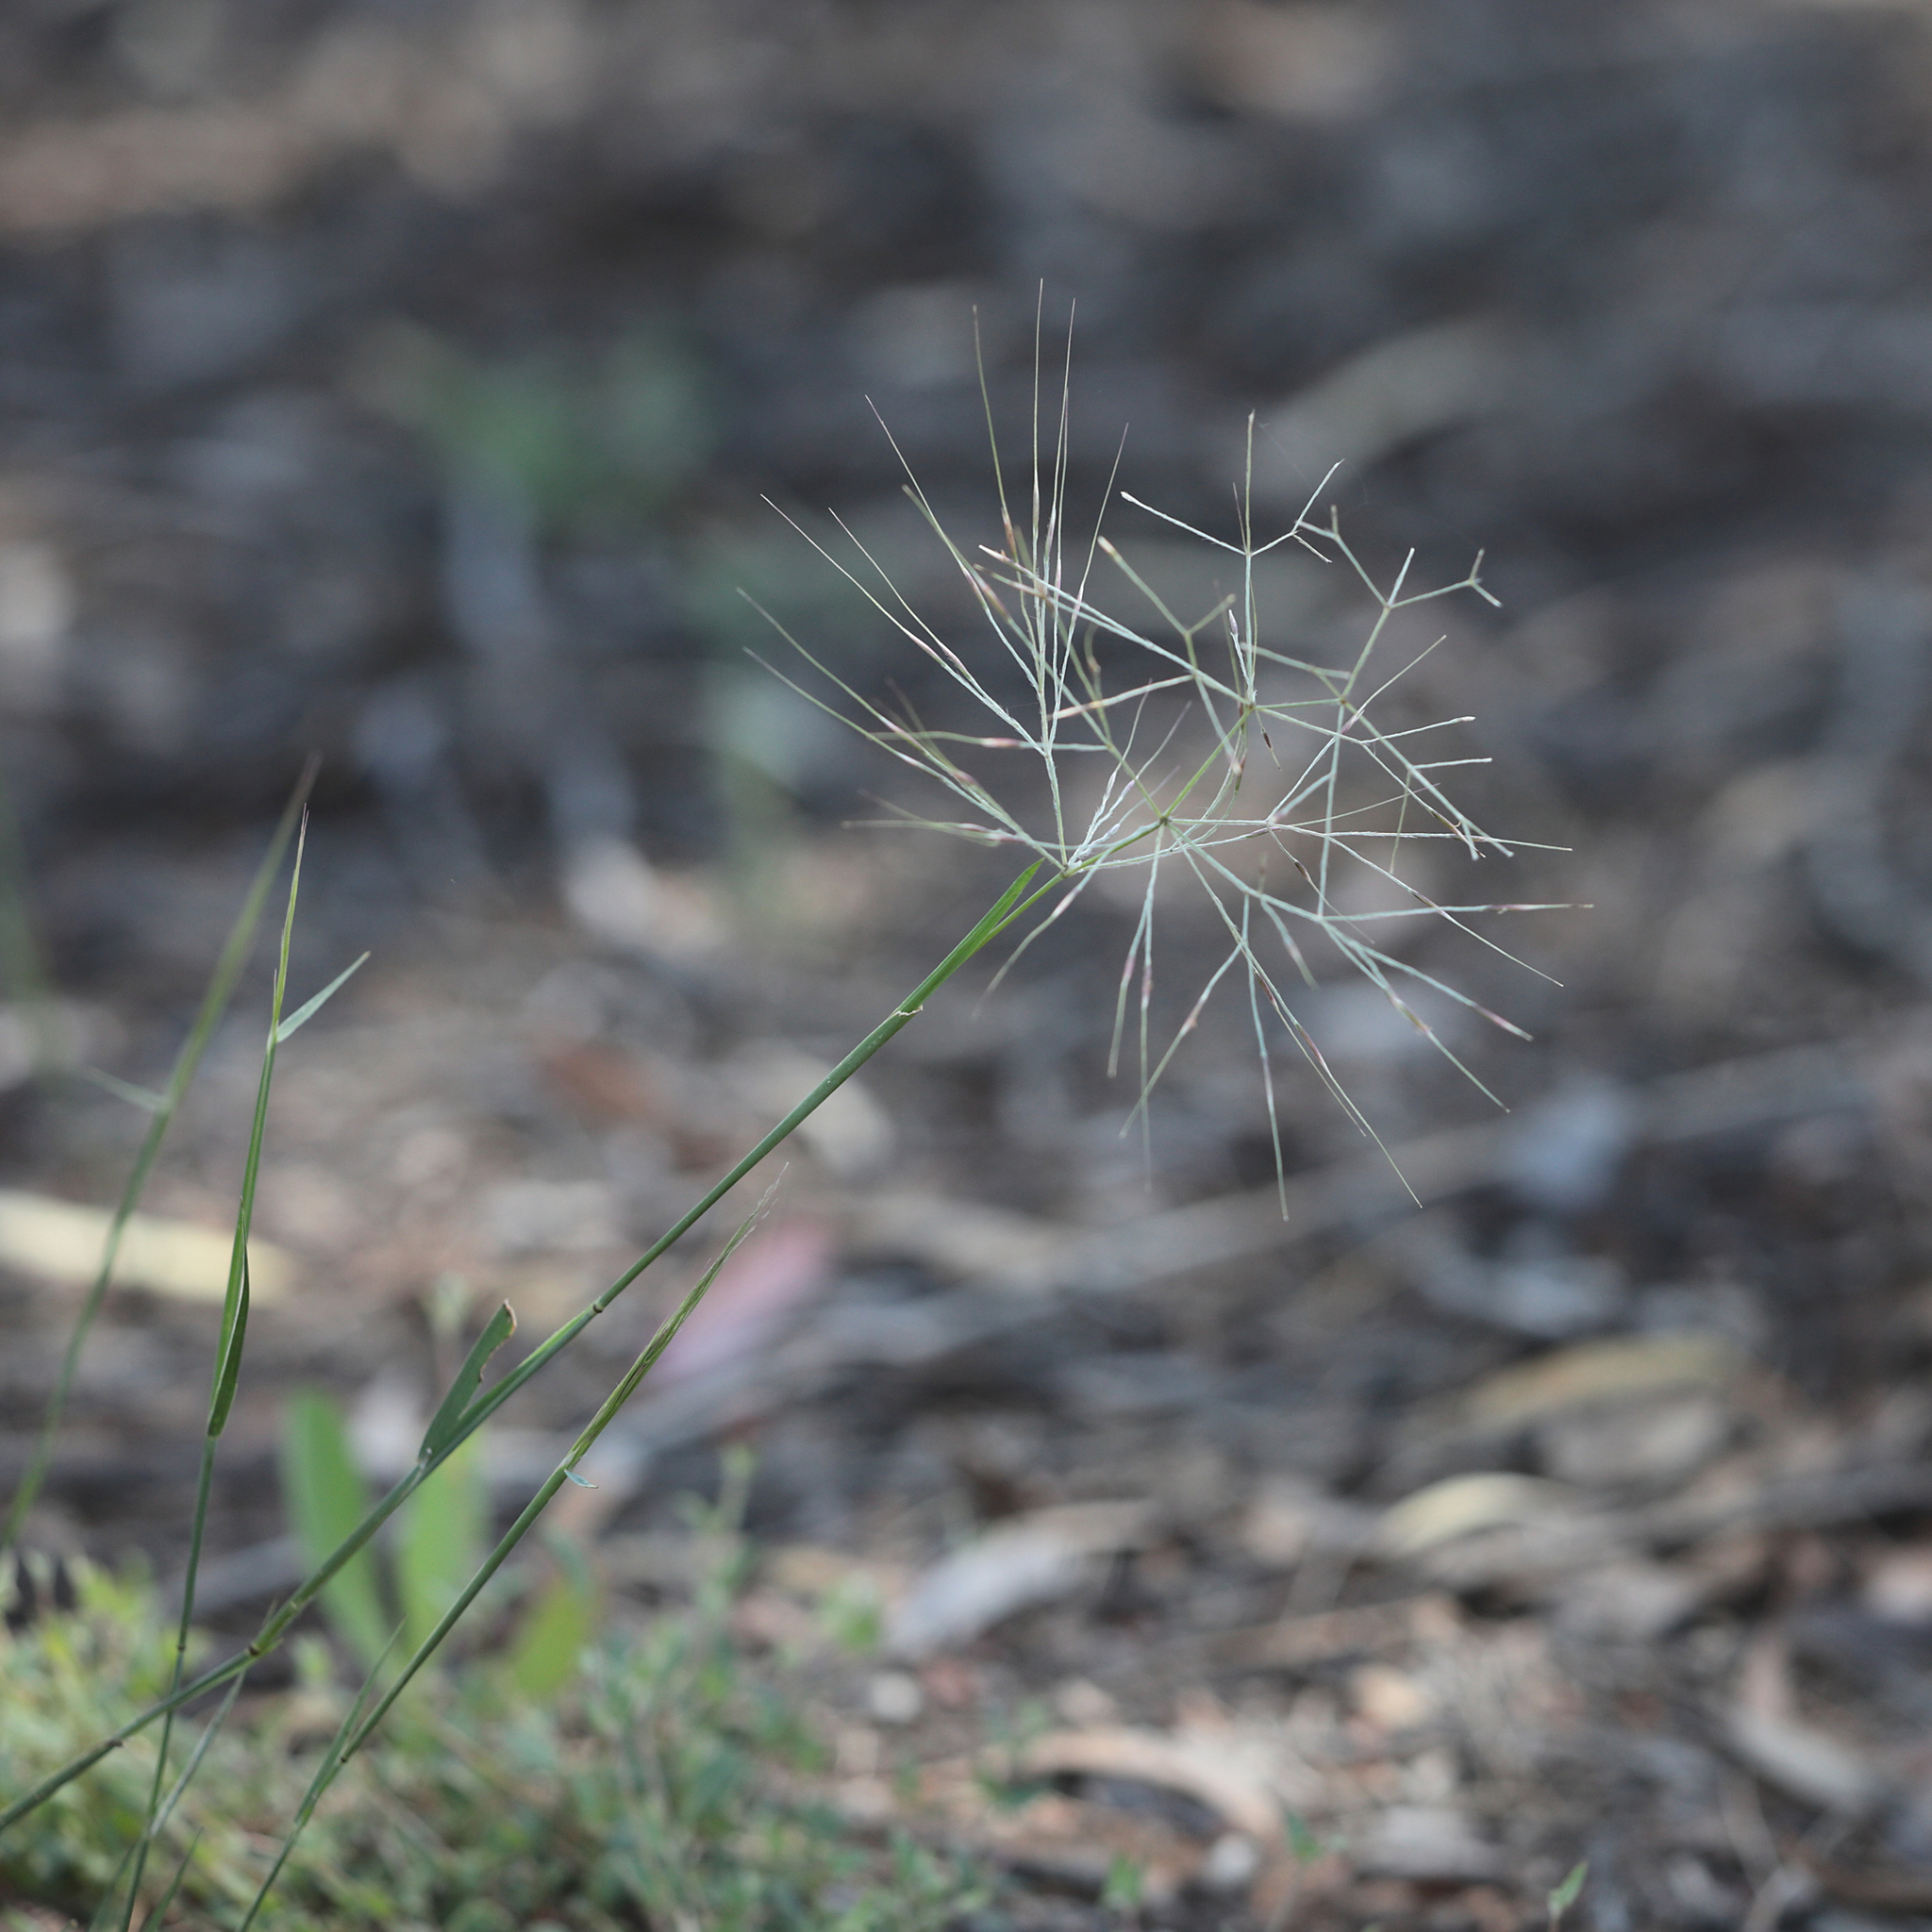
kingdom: Plantae
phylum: Tracheophyta
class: Liliopsida
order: Poales
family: Poaceae
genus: Austrostipa
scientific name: Austrostipa elegantissima
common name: Feather spear grass
